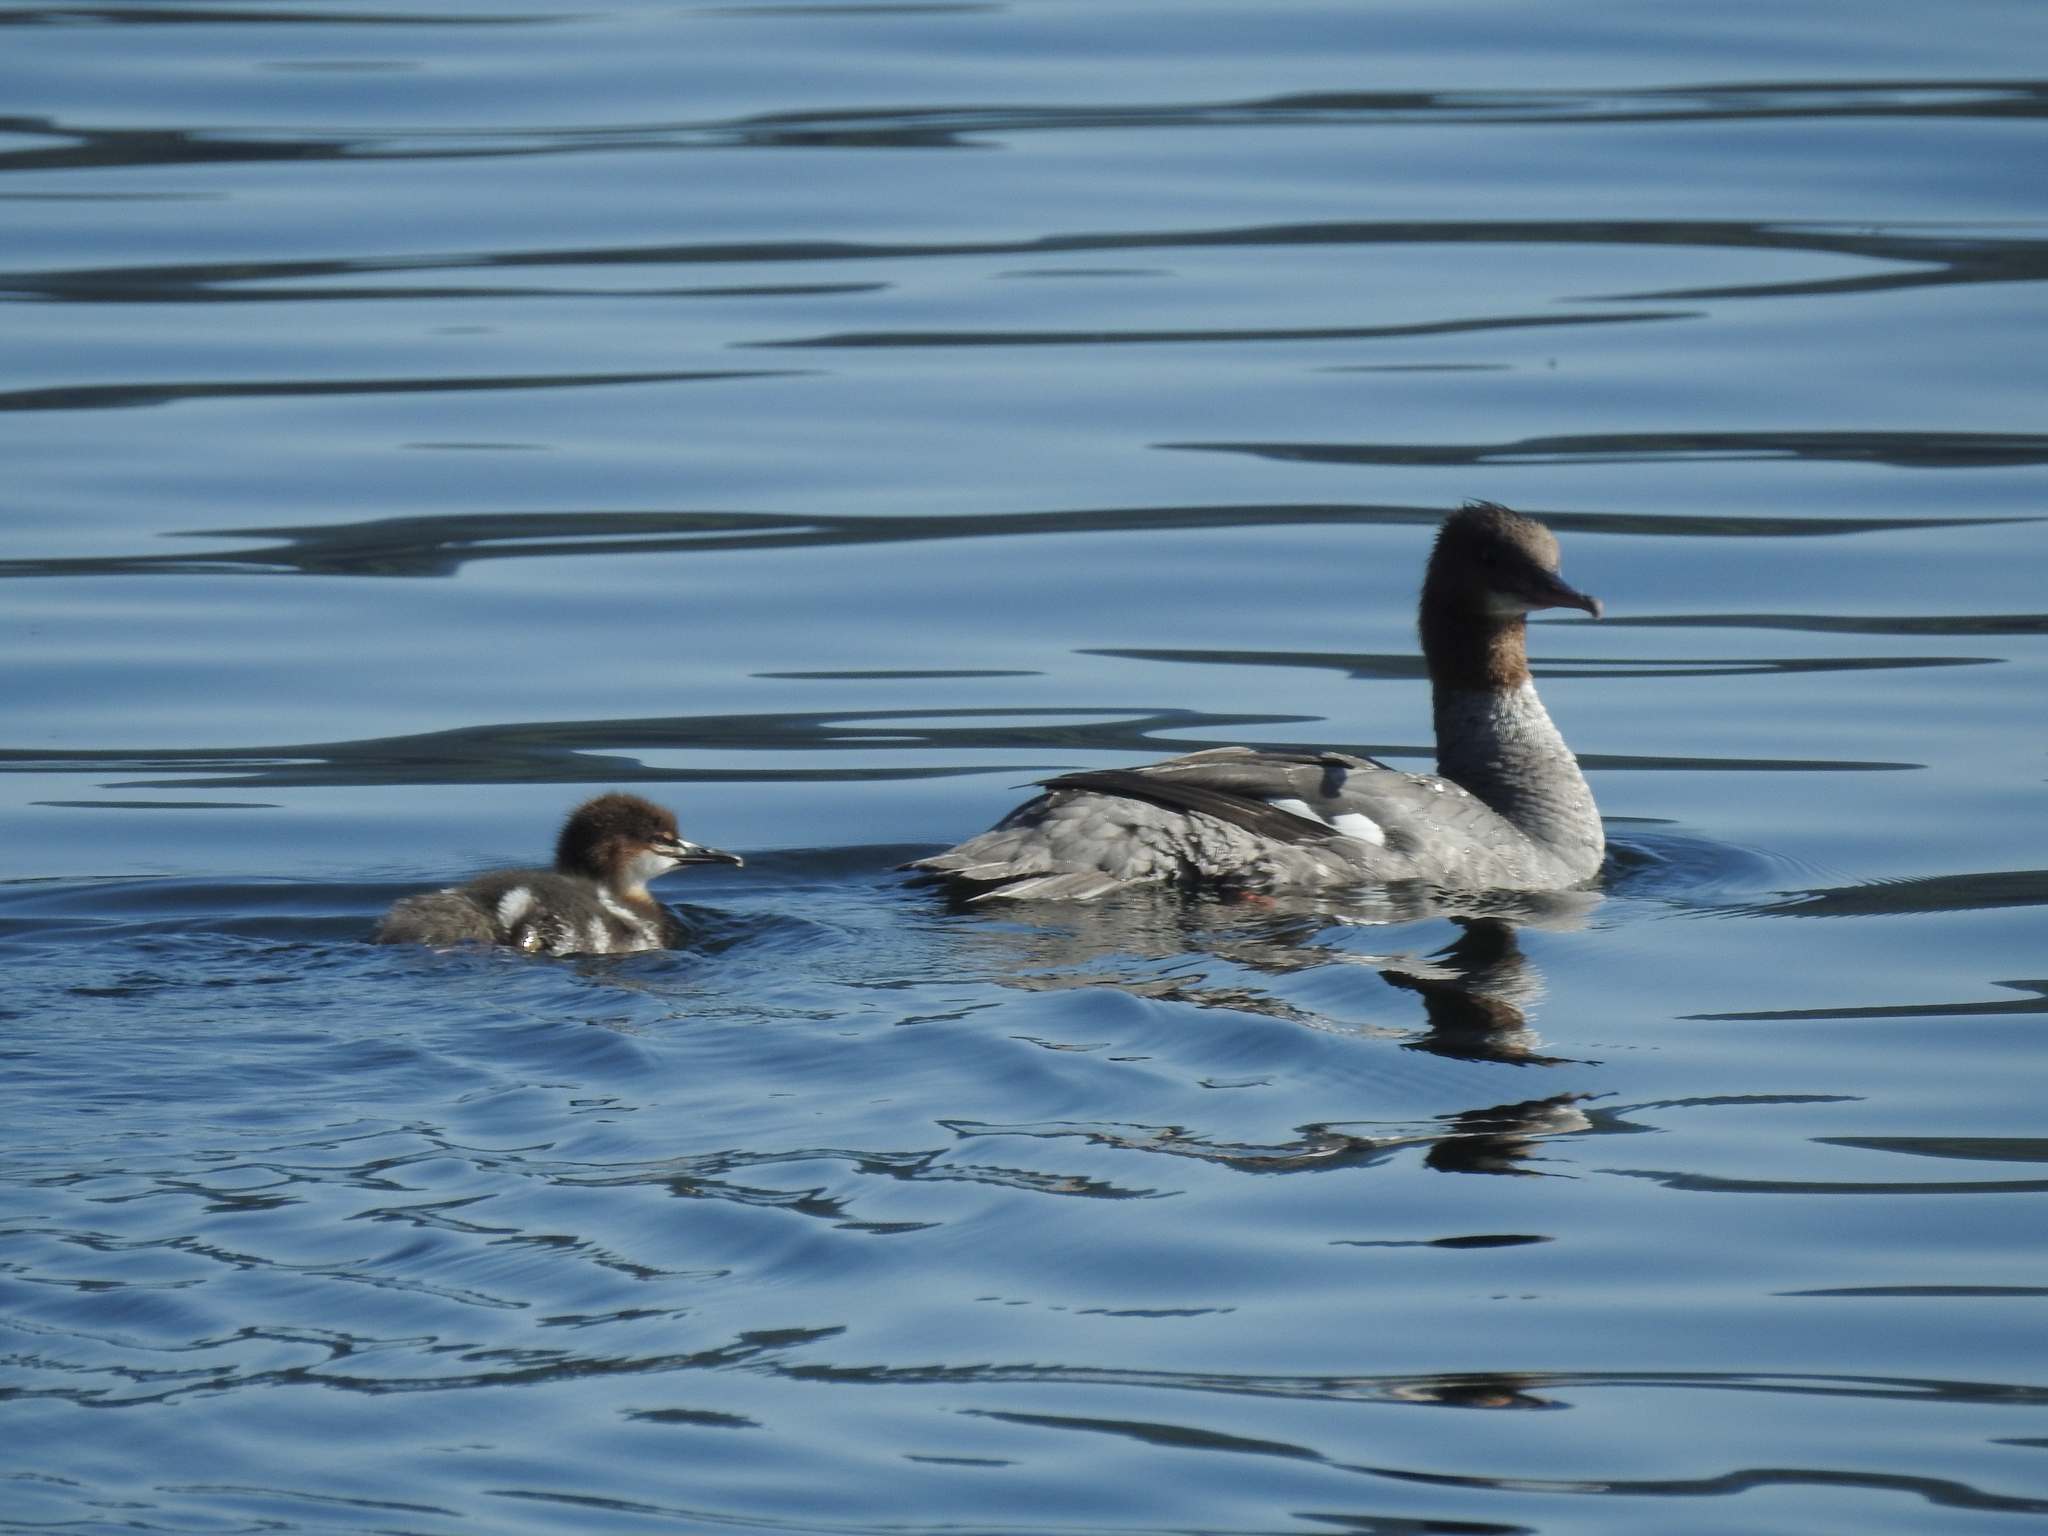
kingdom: Animalia
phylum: Chordata
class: Aves
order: Anseriformes
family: Anatidae
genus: Mergus
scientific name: Mergus merganser
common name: Common merganser
